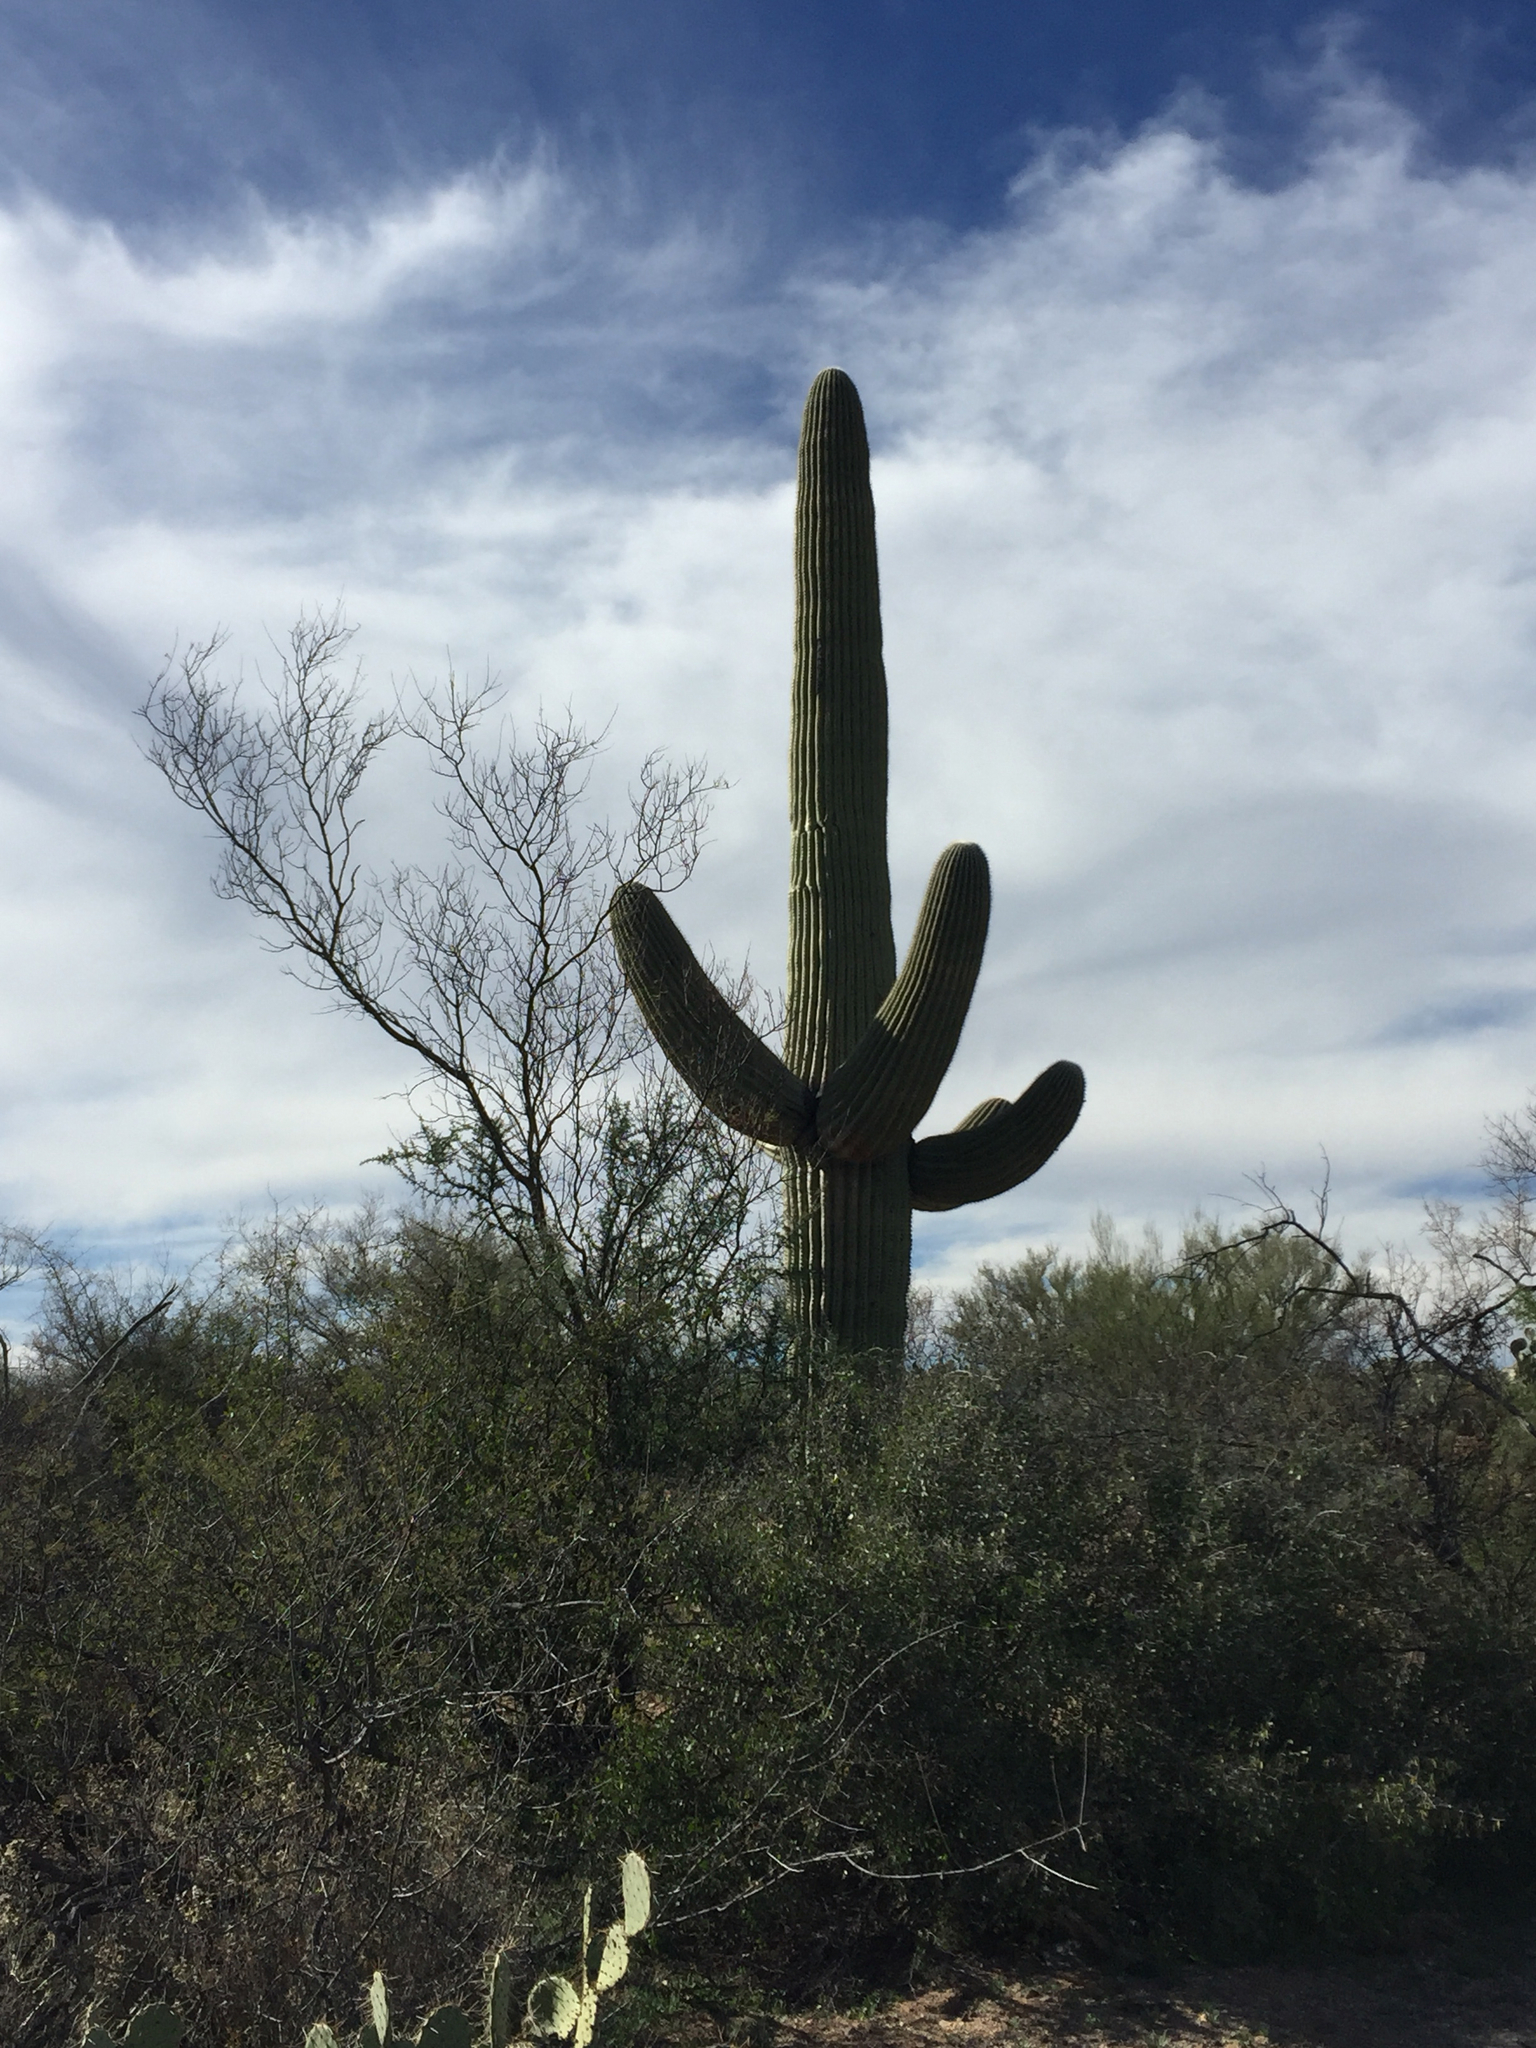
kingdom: Plantae
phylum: Tracheophyta
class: Magnoliopsida
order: Caryophyllales
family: Cactaceae
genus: Carnegiea
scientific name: Carnegiea gigantea
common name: Saguaro
